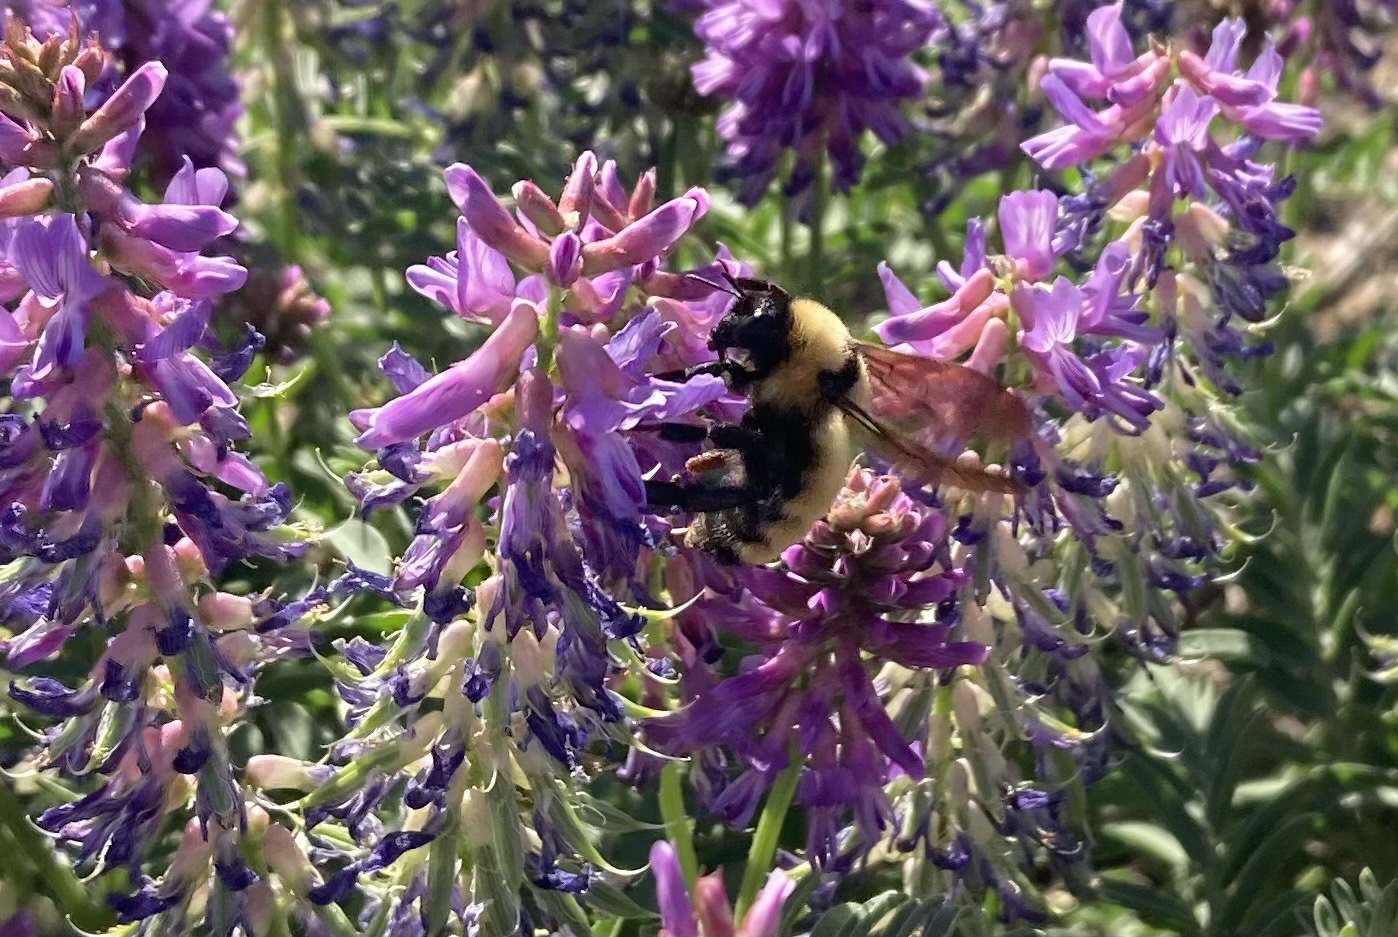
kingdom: Animalia
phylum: Arthropoda
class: Insecta
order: Hymenoptera
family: Apidae
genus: Bombus
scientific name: Bombus fervidus
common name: Yellow bumble bee
